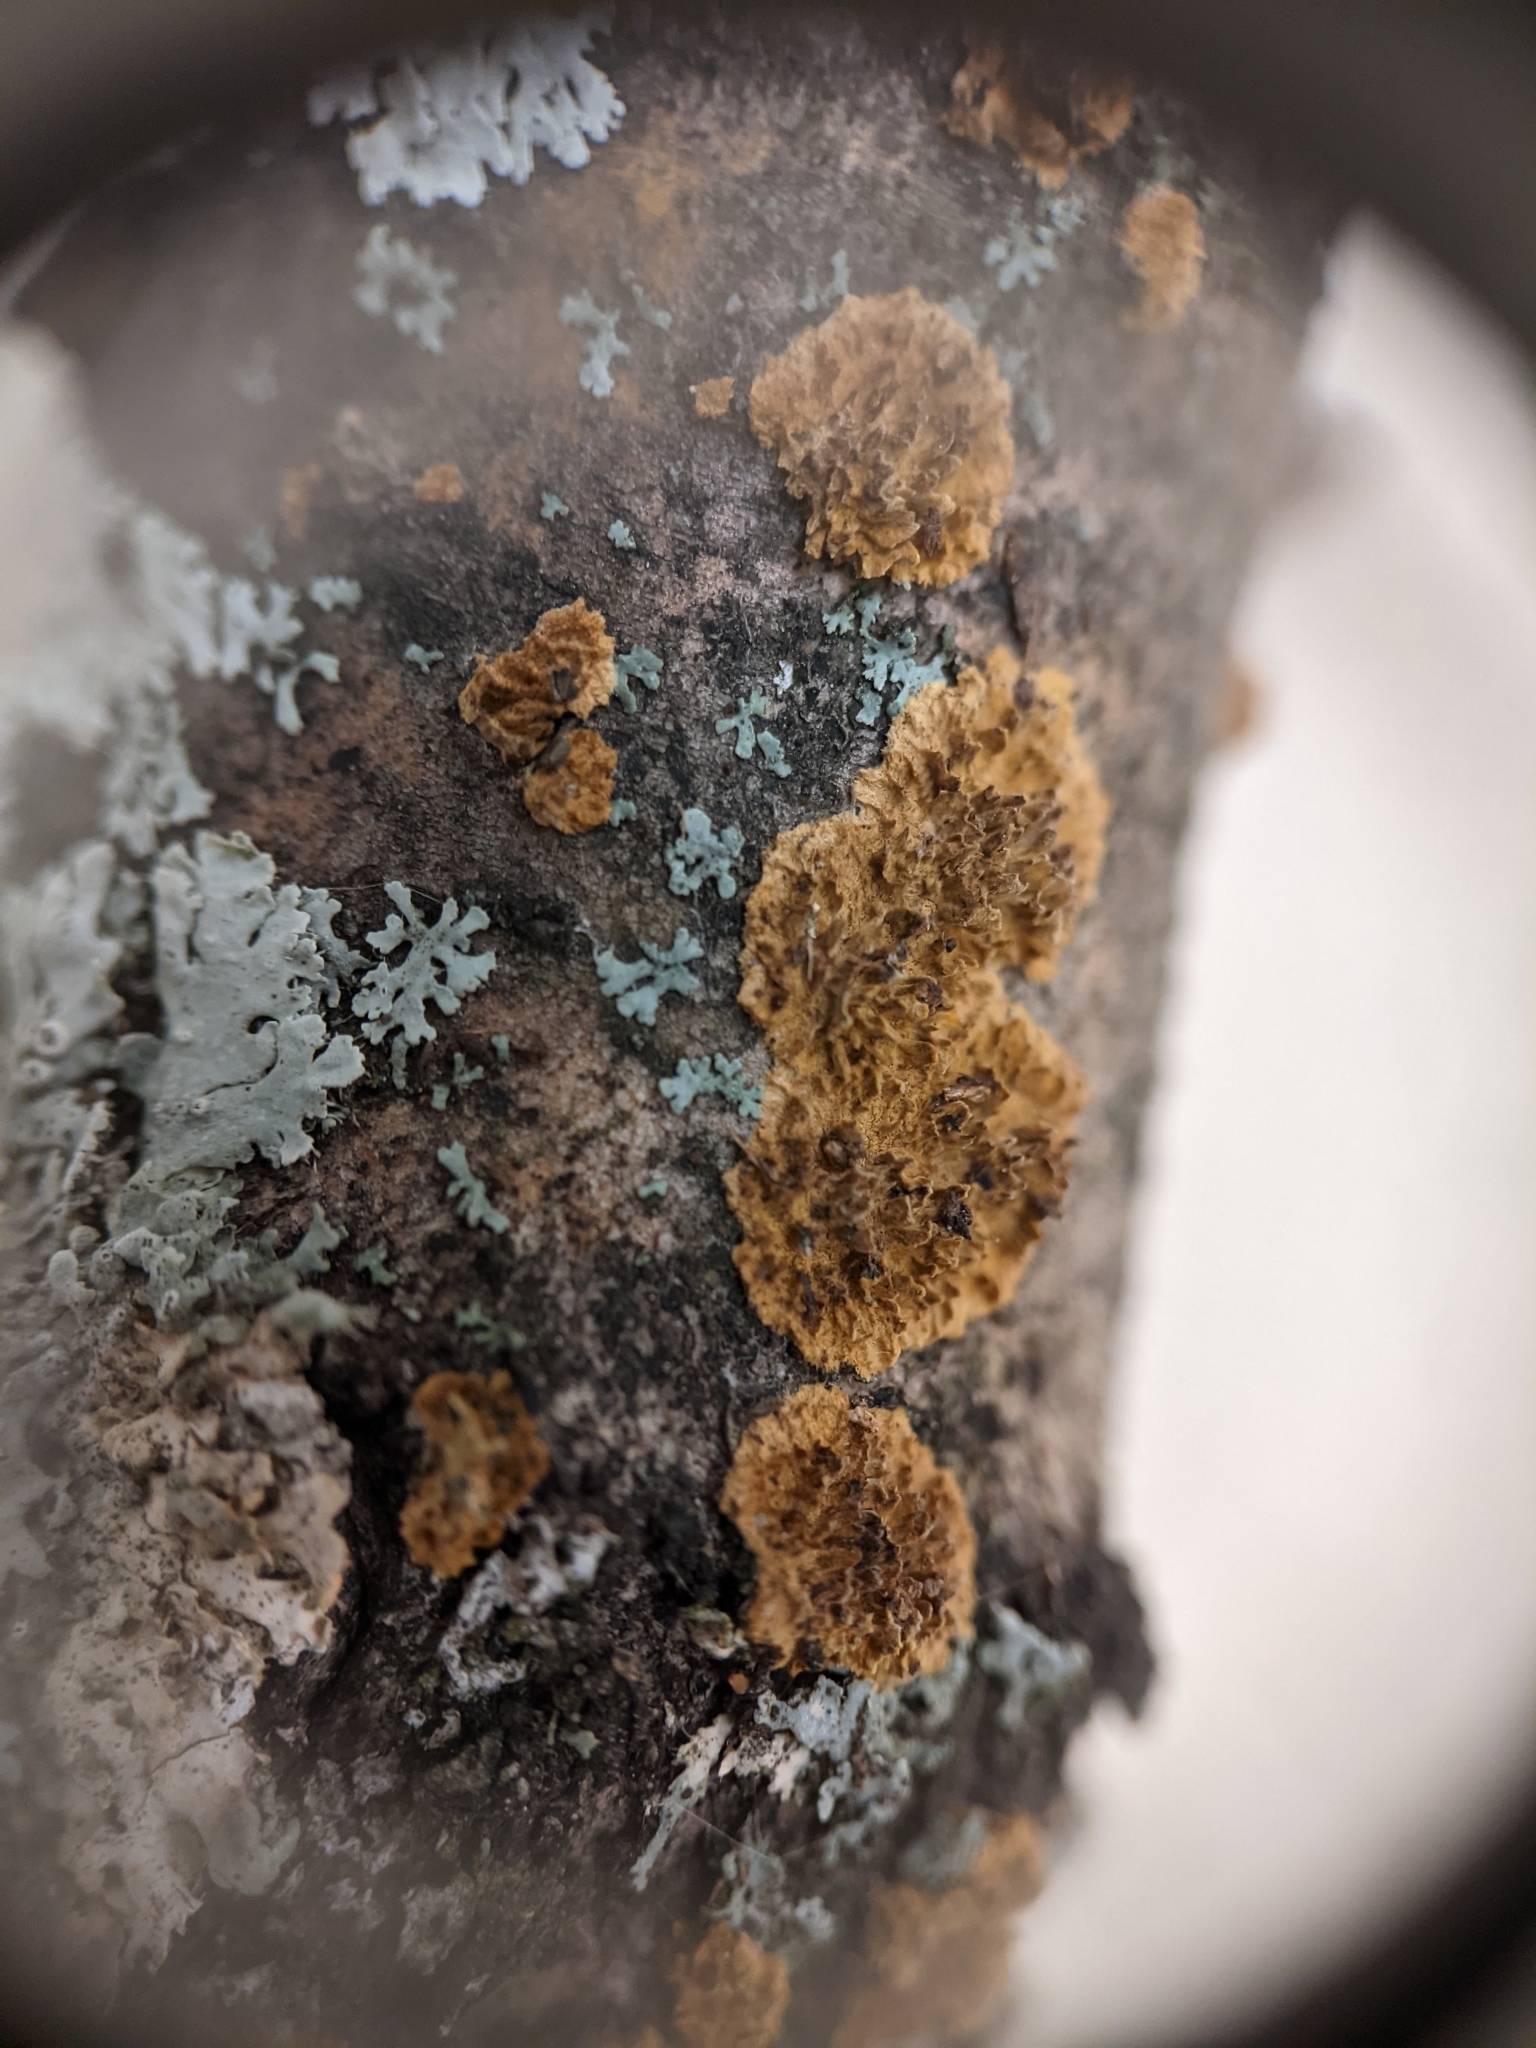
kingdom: Fungi
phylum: Basidiomycota
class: Agaricomycetes
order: Hymenochaetales
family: Hymenochaetaceae
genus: Hydnoporia
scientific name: Hydnoporia olivacea
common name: Brown-toothed crust fungus
